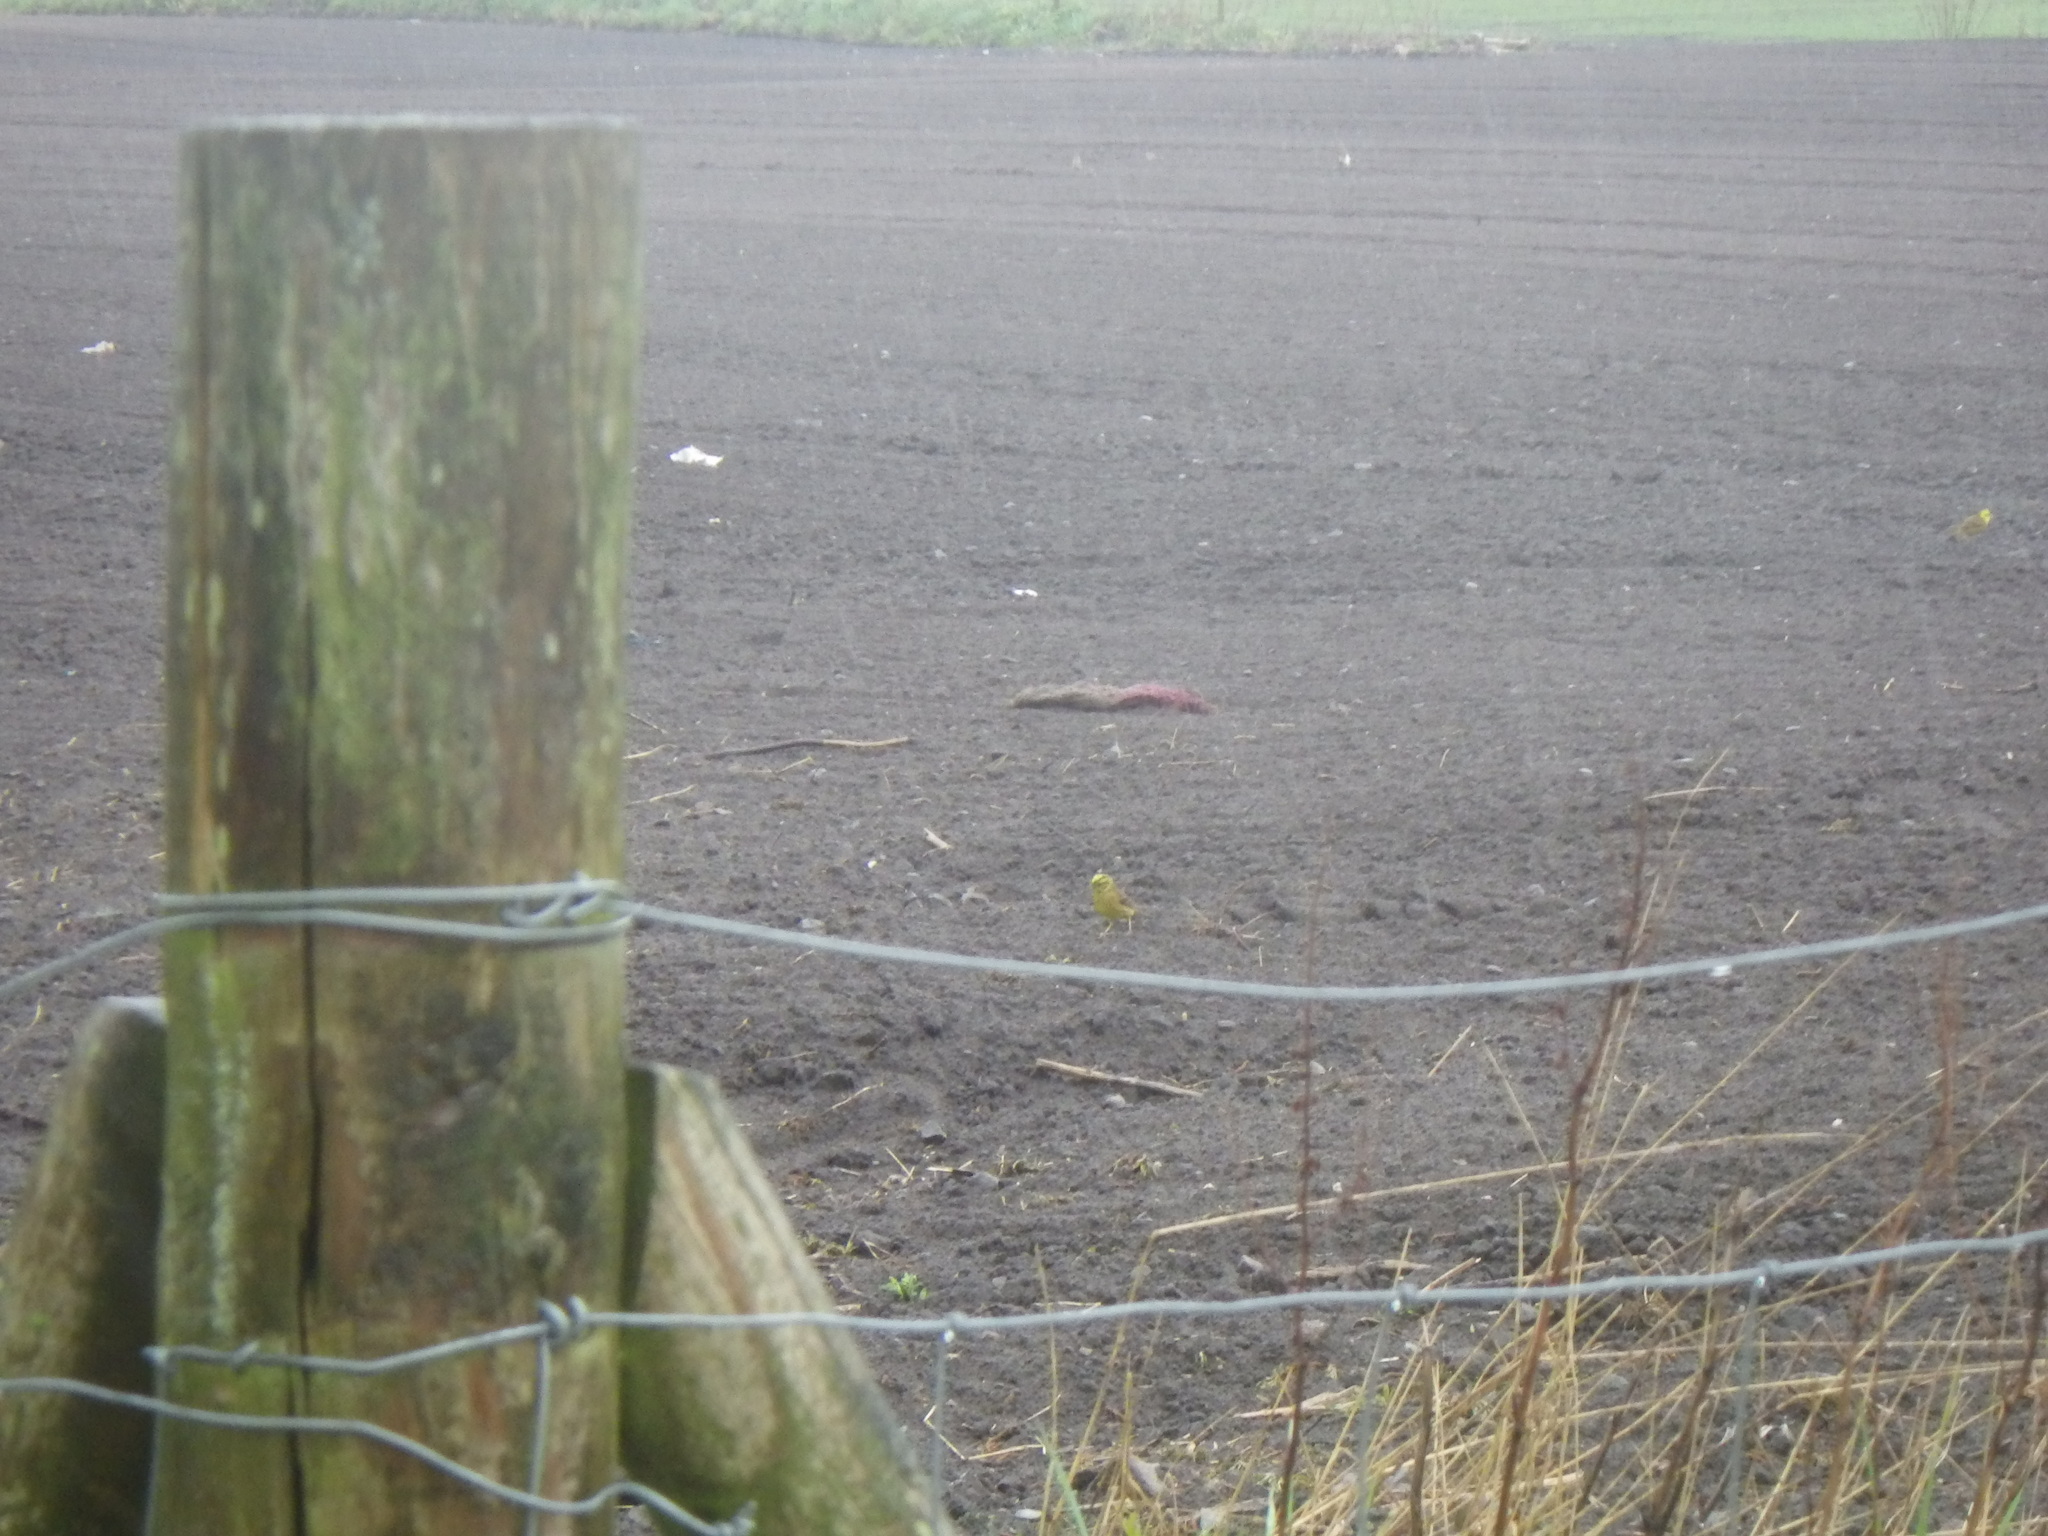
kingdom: Animalia
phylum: Chordata
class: Aves
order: Passeriformes
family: Emberizidae
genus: Emberiza
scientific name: Emberiza citrinella
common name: Yellowhammer
